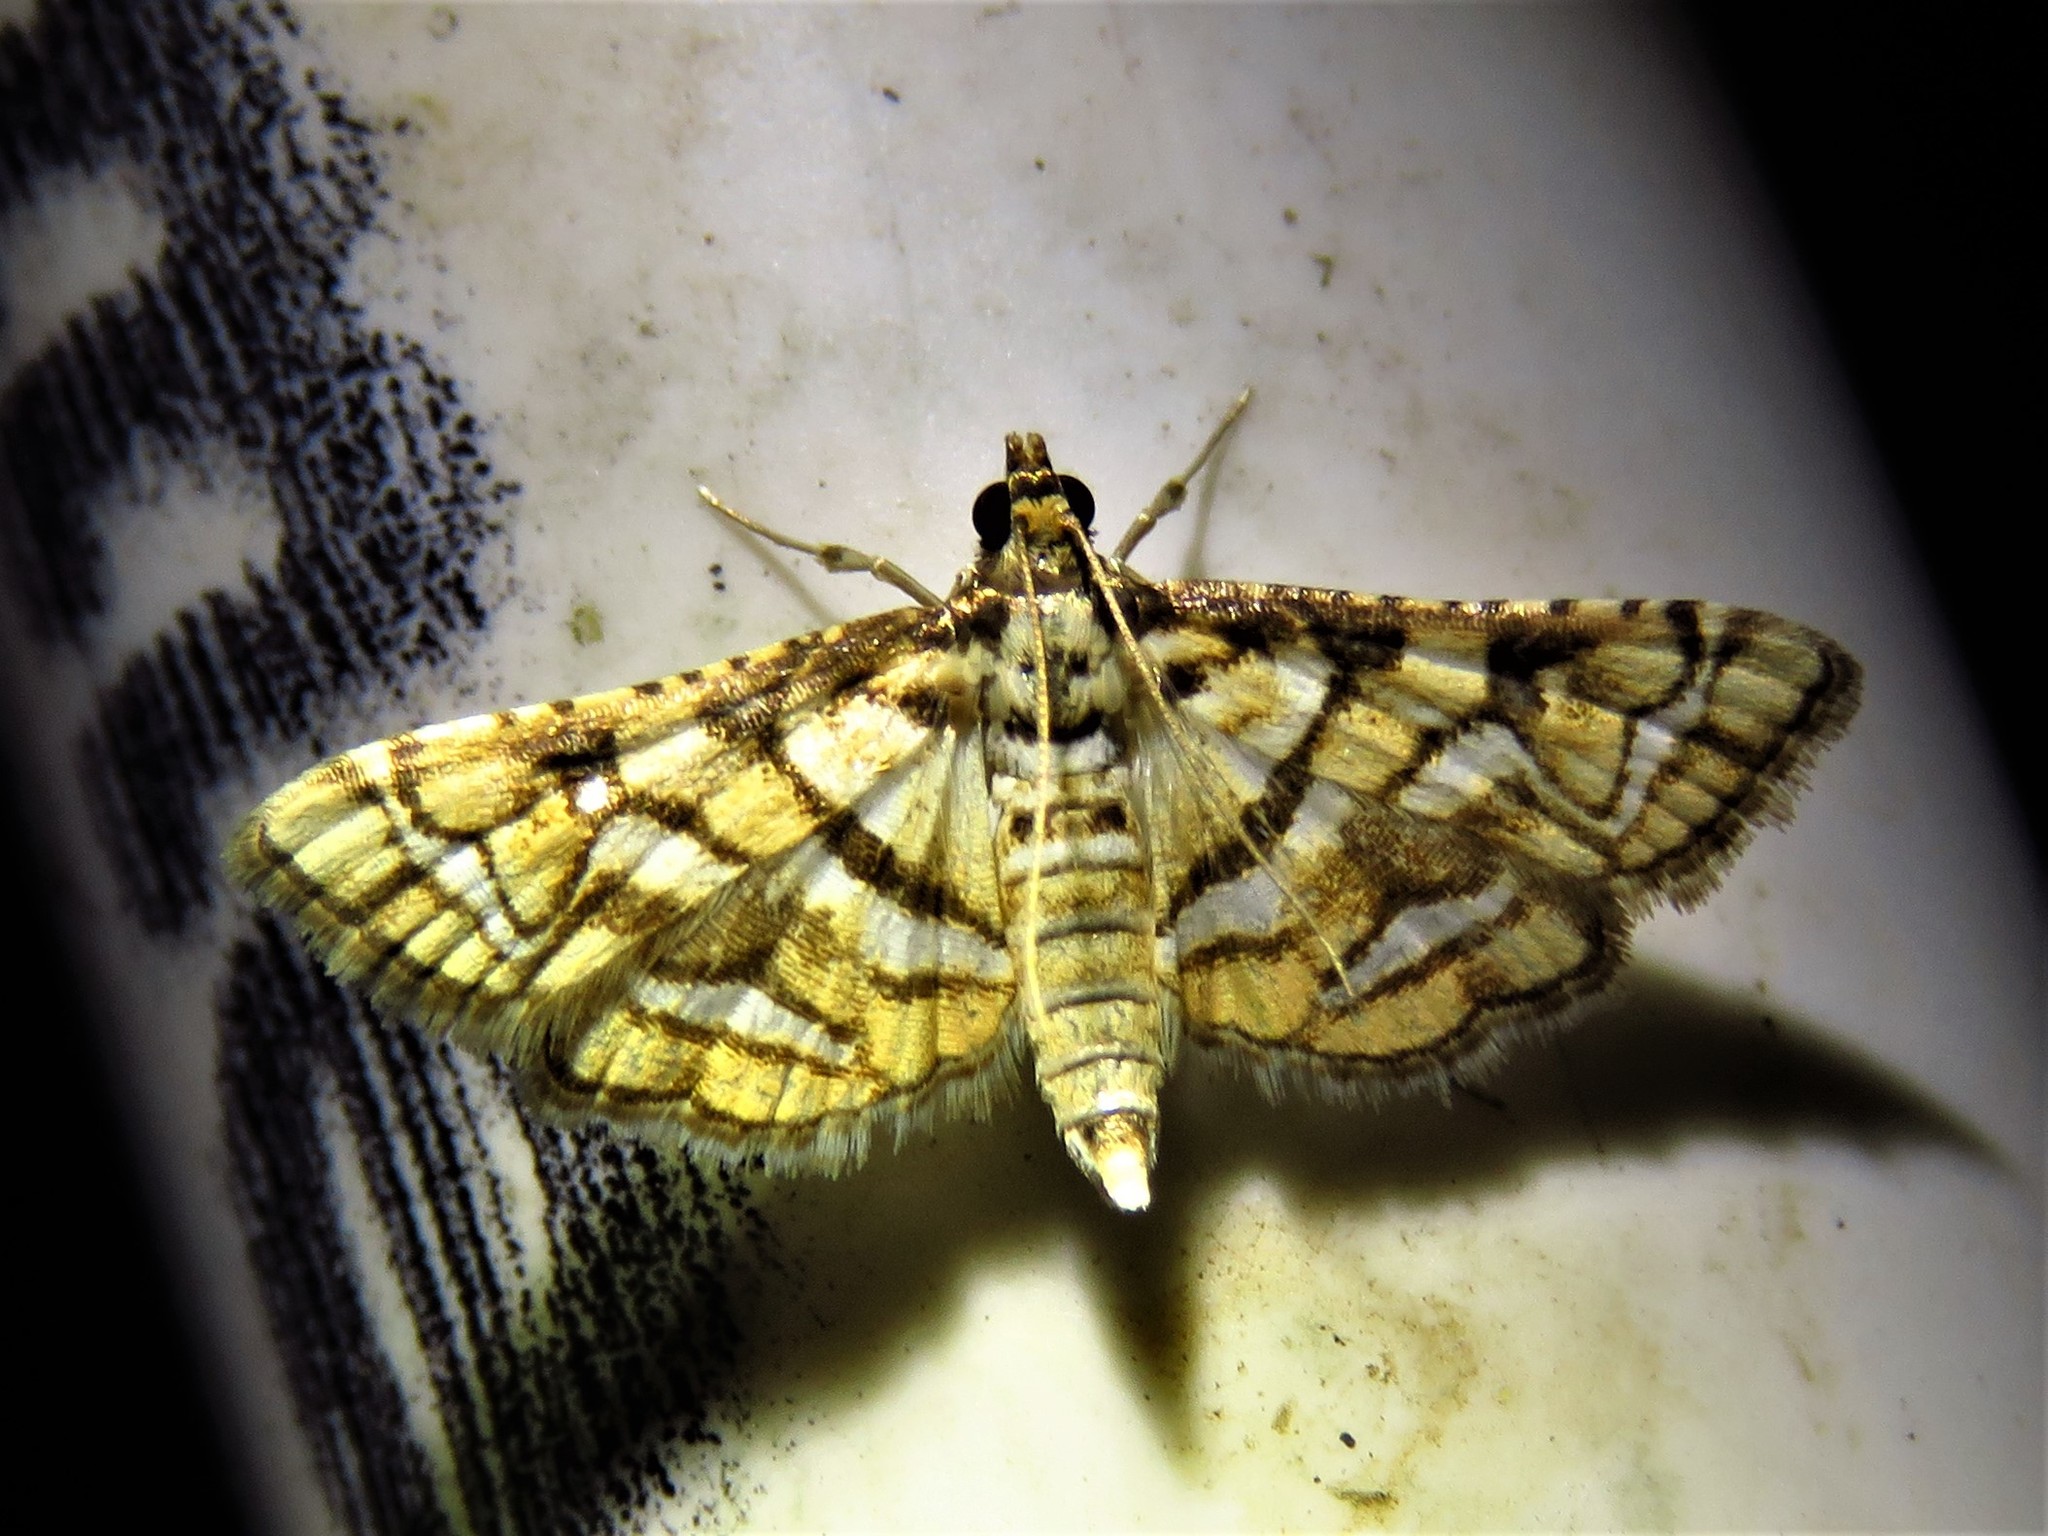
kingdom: Animalia
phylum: Arthropoda
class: Insecta
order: Lepidoptera
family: Crambidae
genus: Hileithia
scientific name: Hileithia magualis
